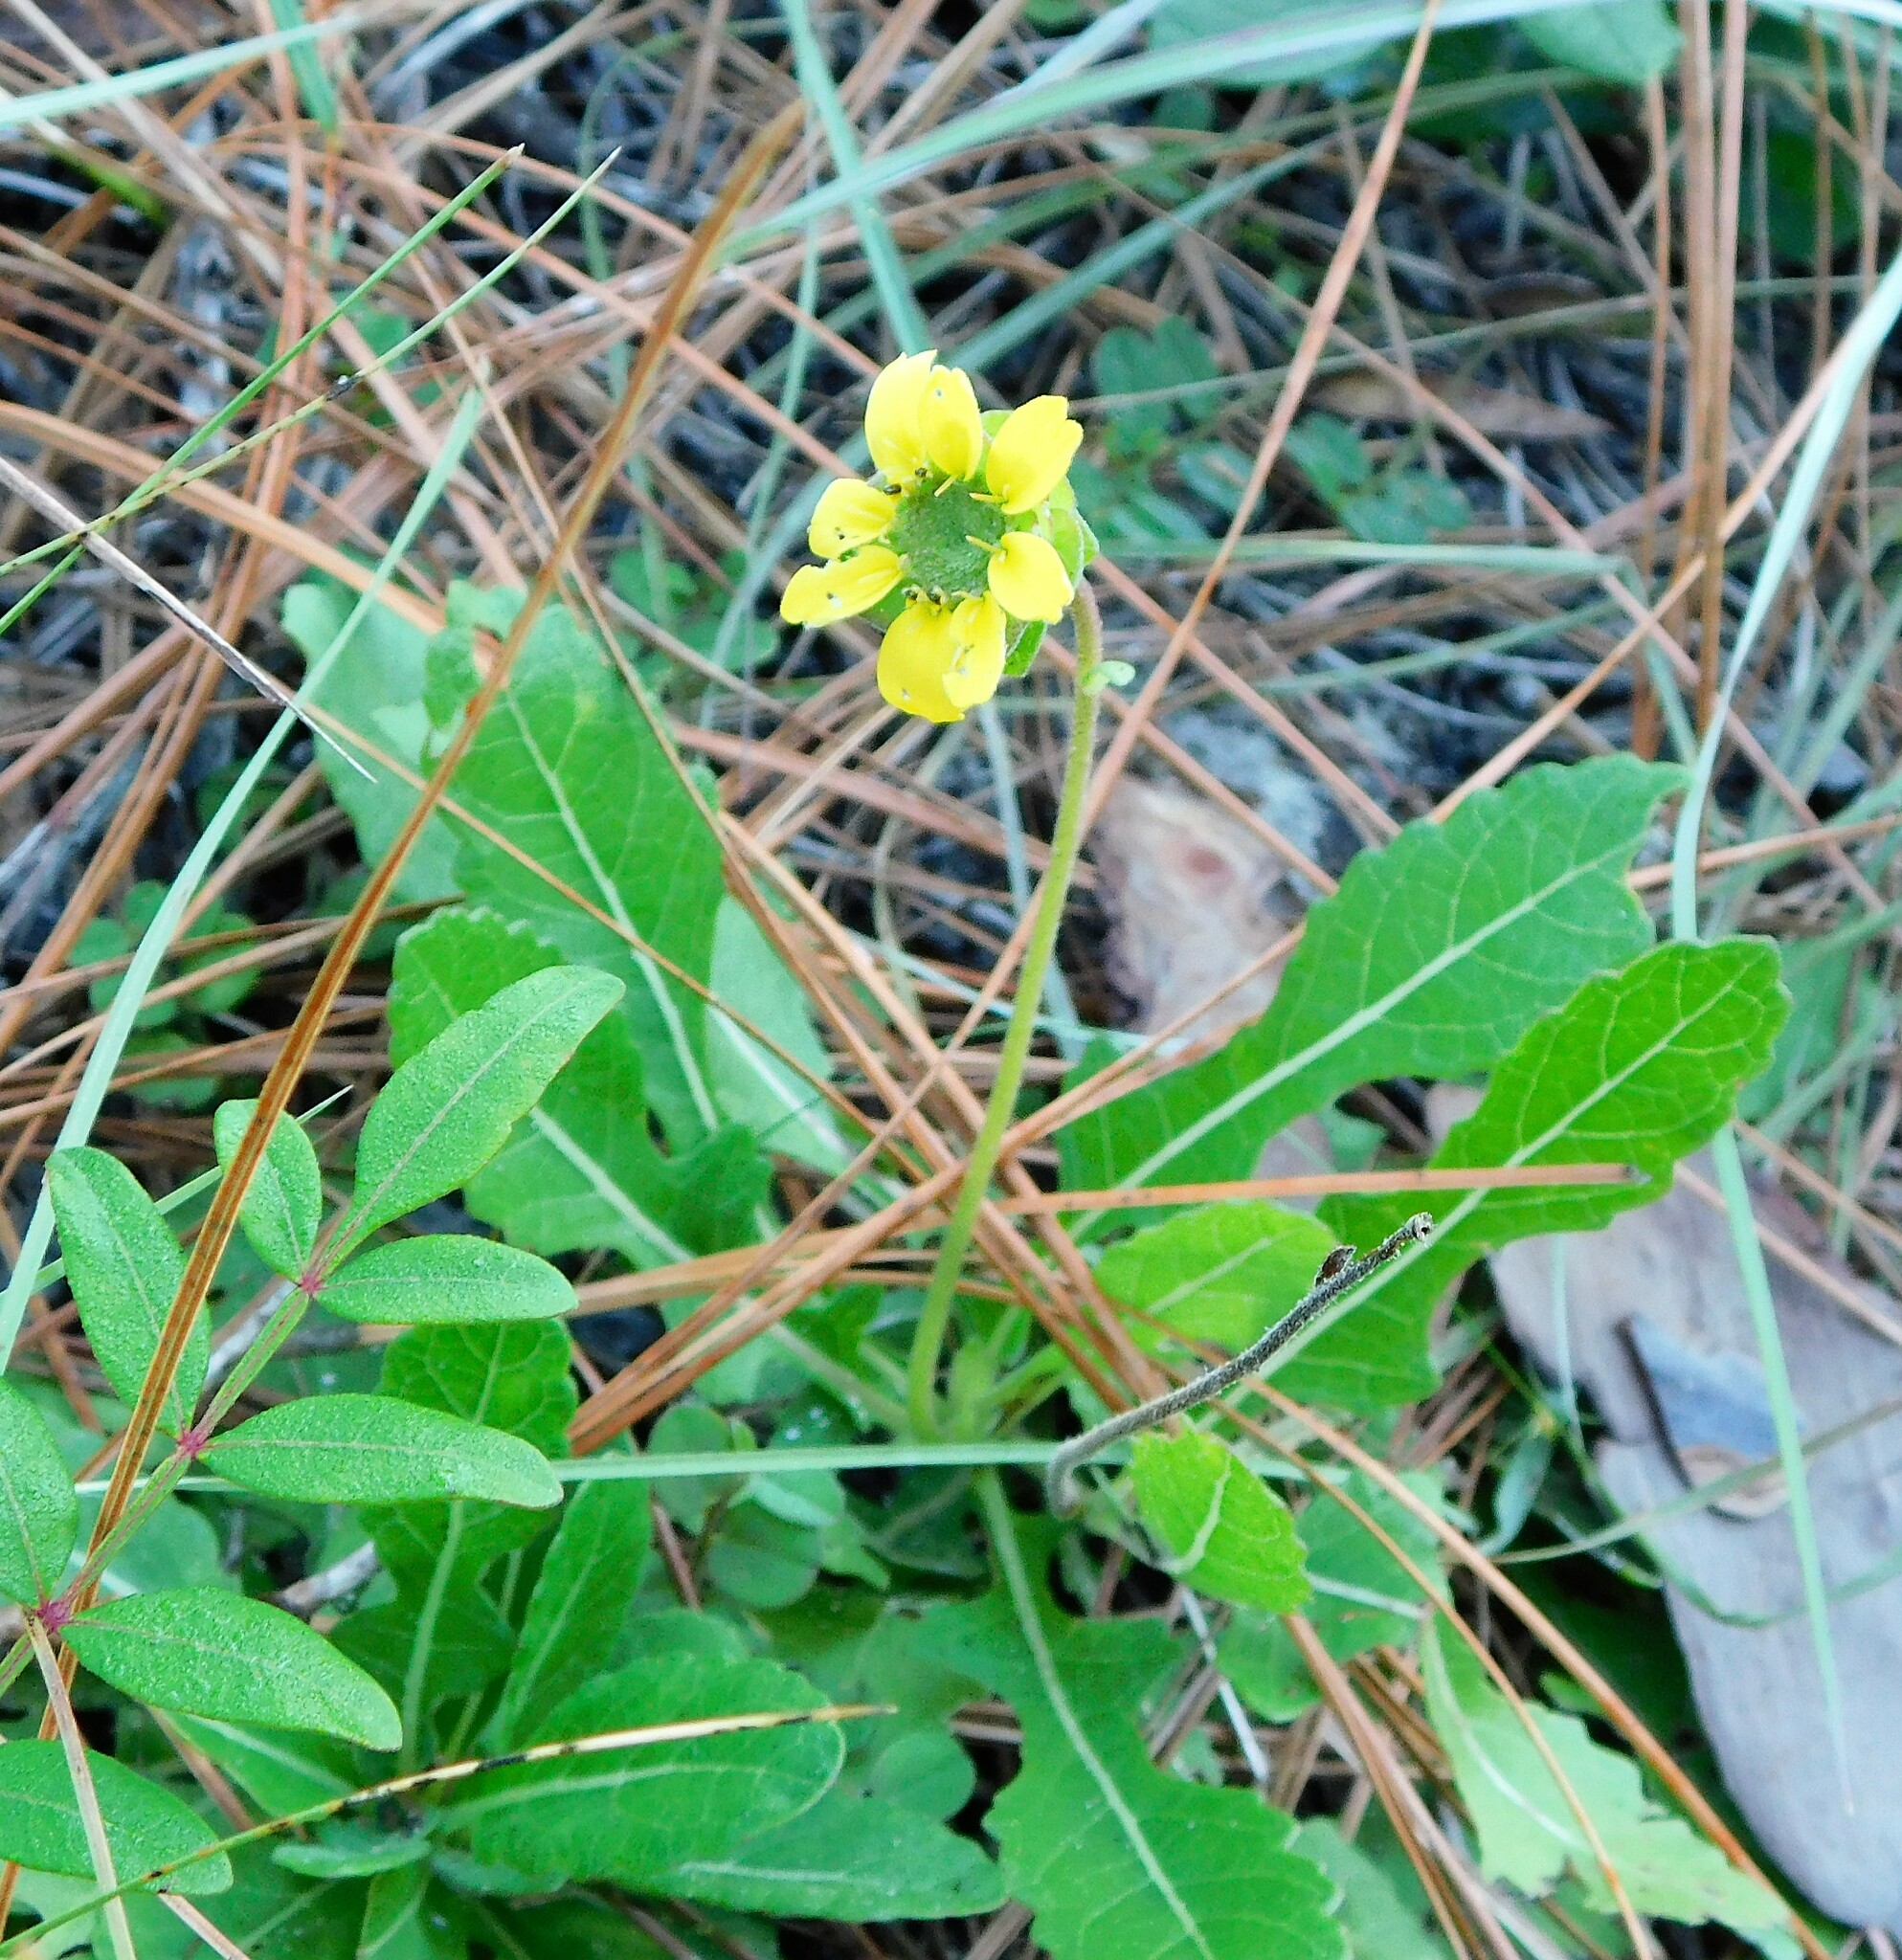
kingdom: Plantae
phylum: Tracheophyta
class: Magnoliopsida
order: Asterales
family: Asteraceae
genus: Berlandiera
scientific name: Berlandiera subacaulis
